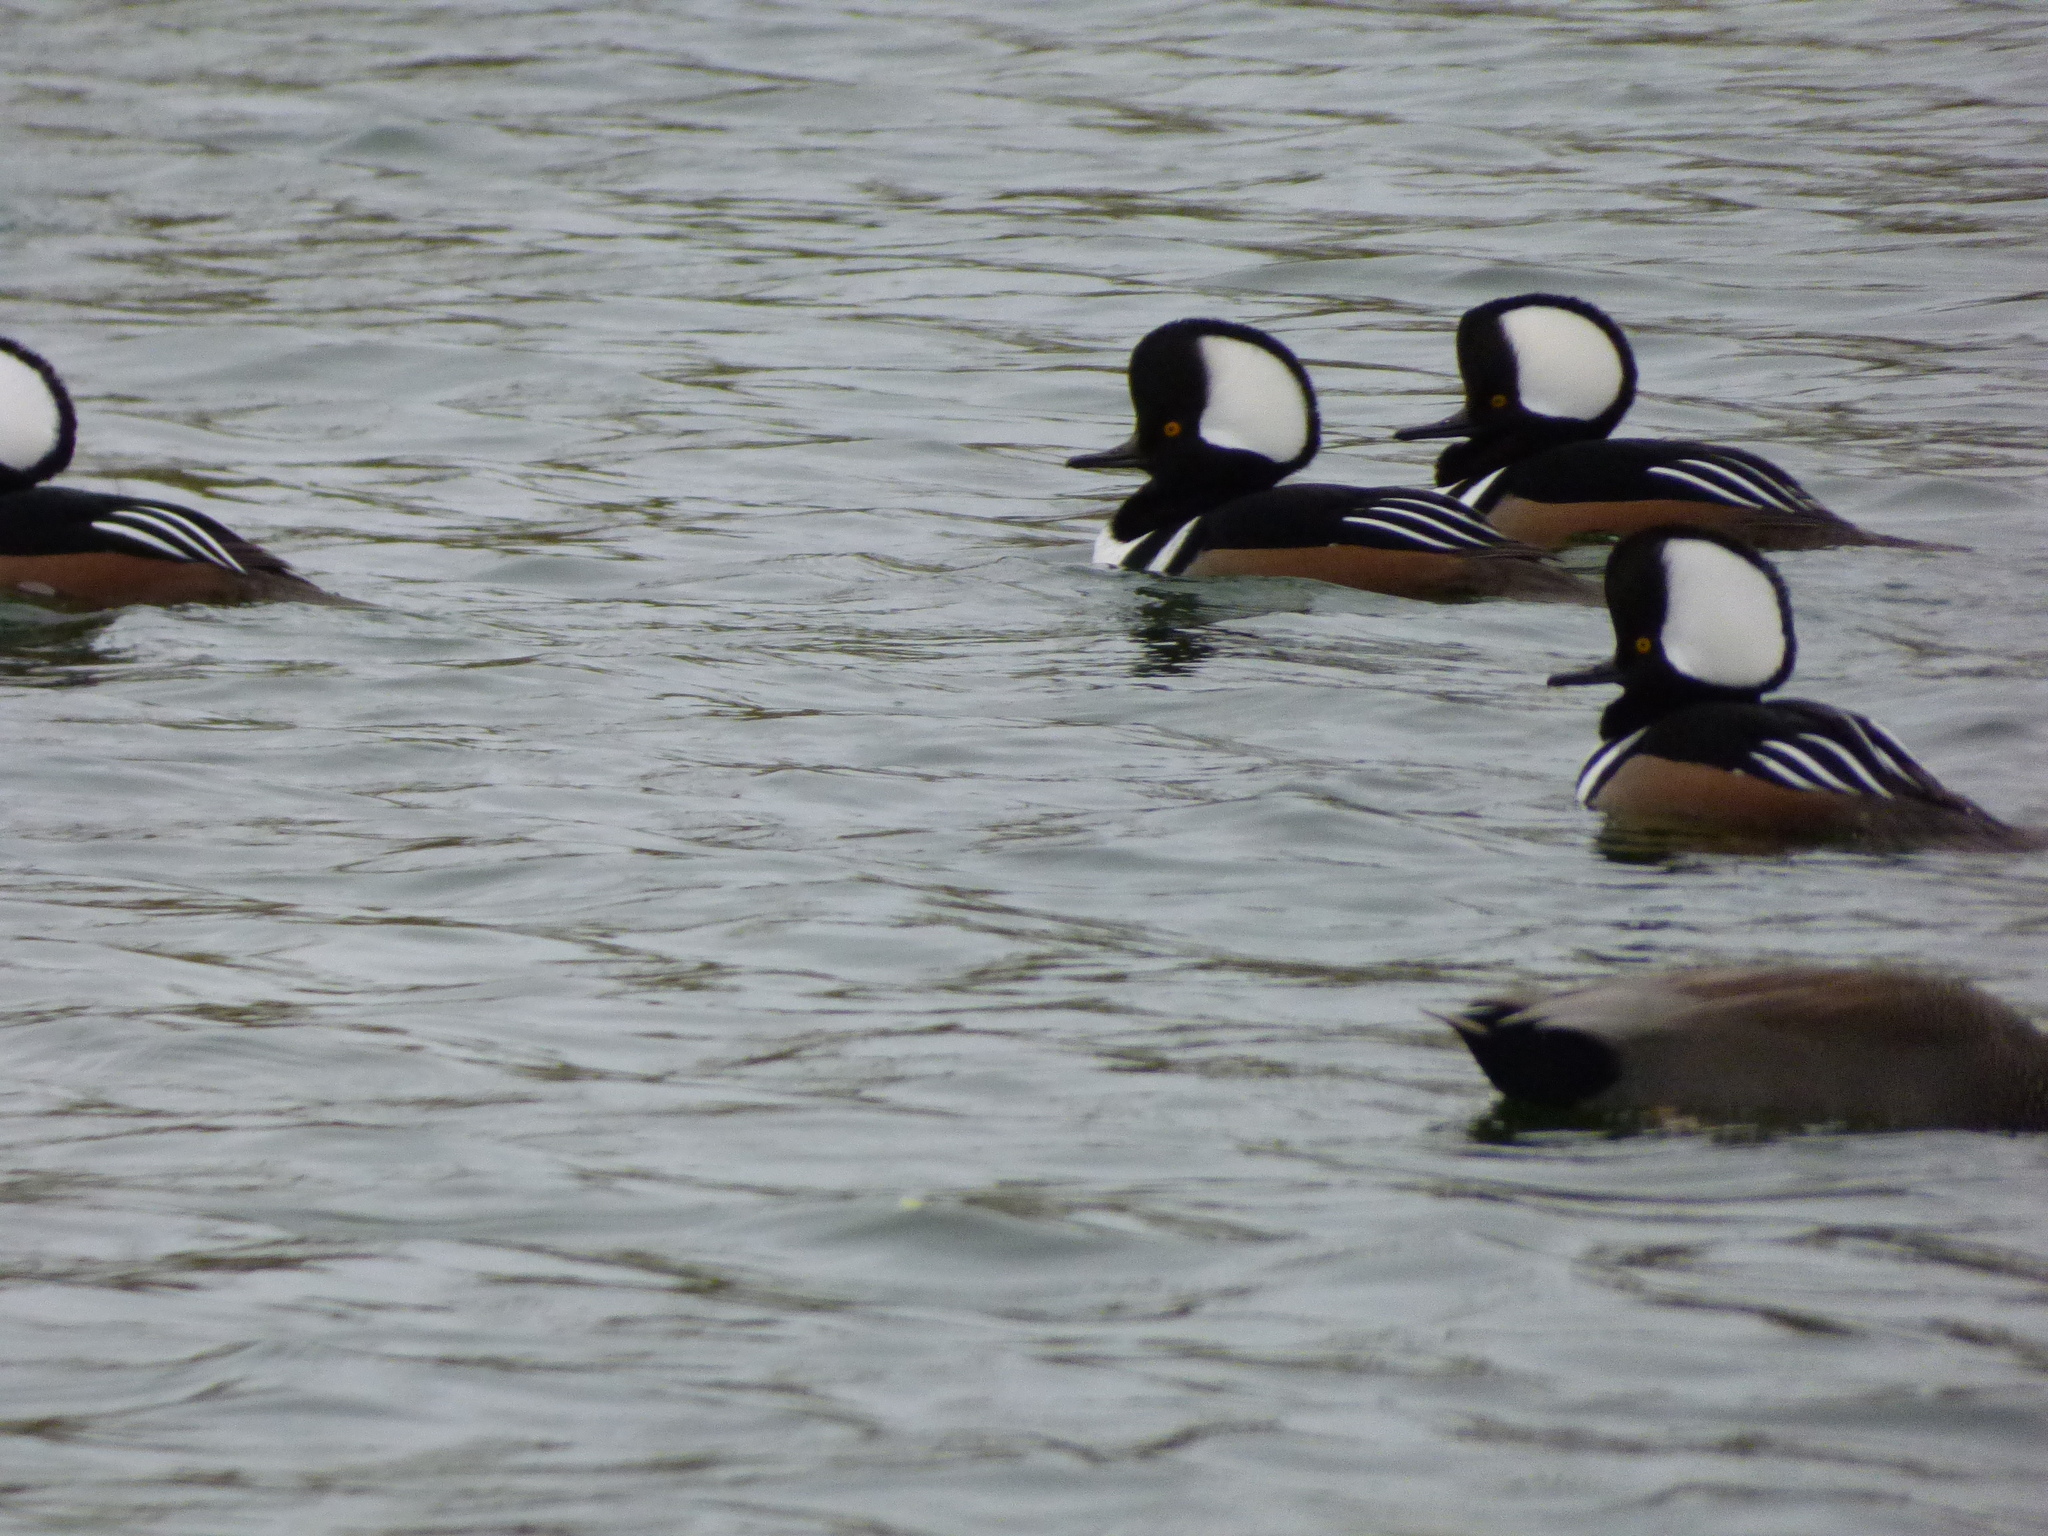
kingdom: Animalia
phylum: Chordata
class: Aves
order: Anseriformes
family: Anatidae
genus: Lophodytes
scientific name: Lophodytes cucullatus
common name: Hooded merganser
